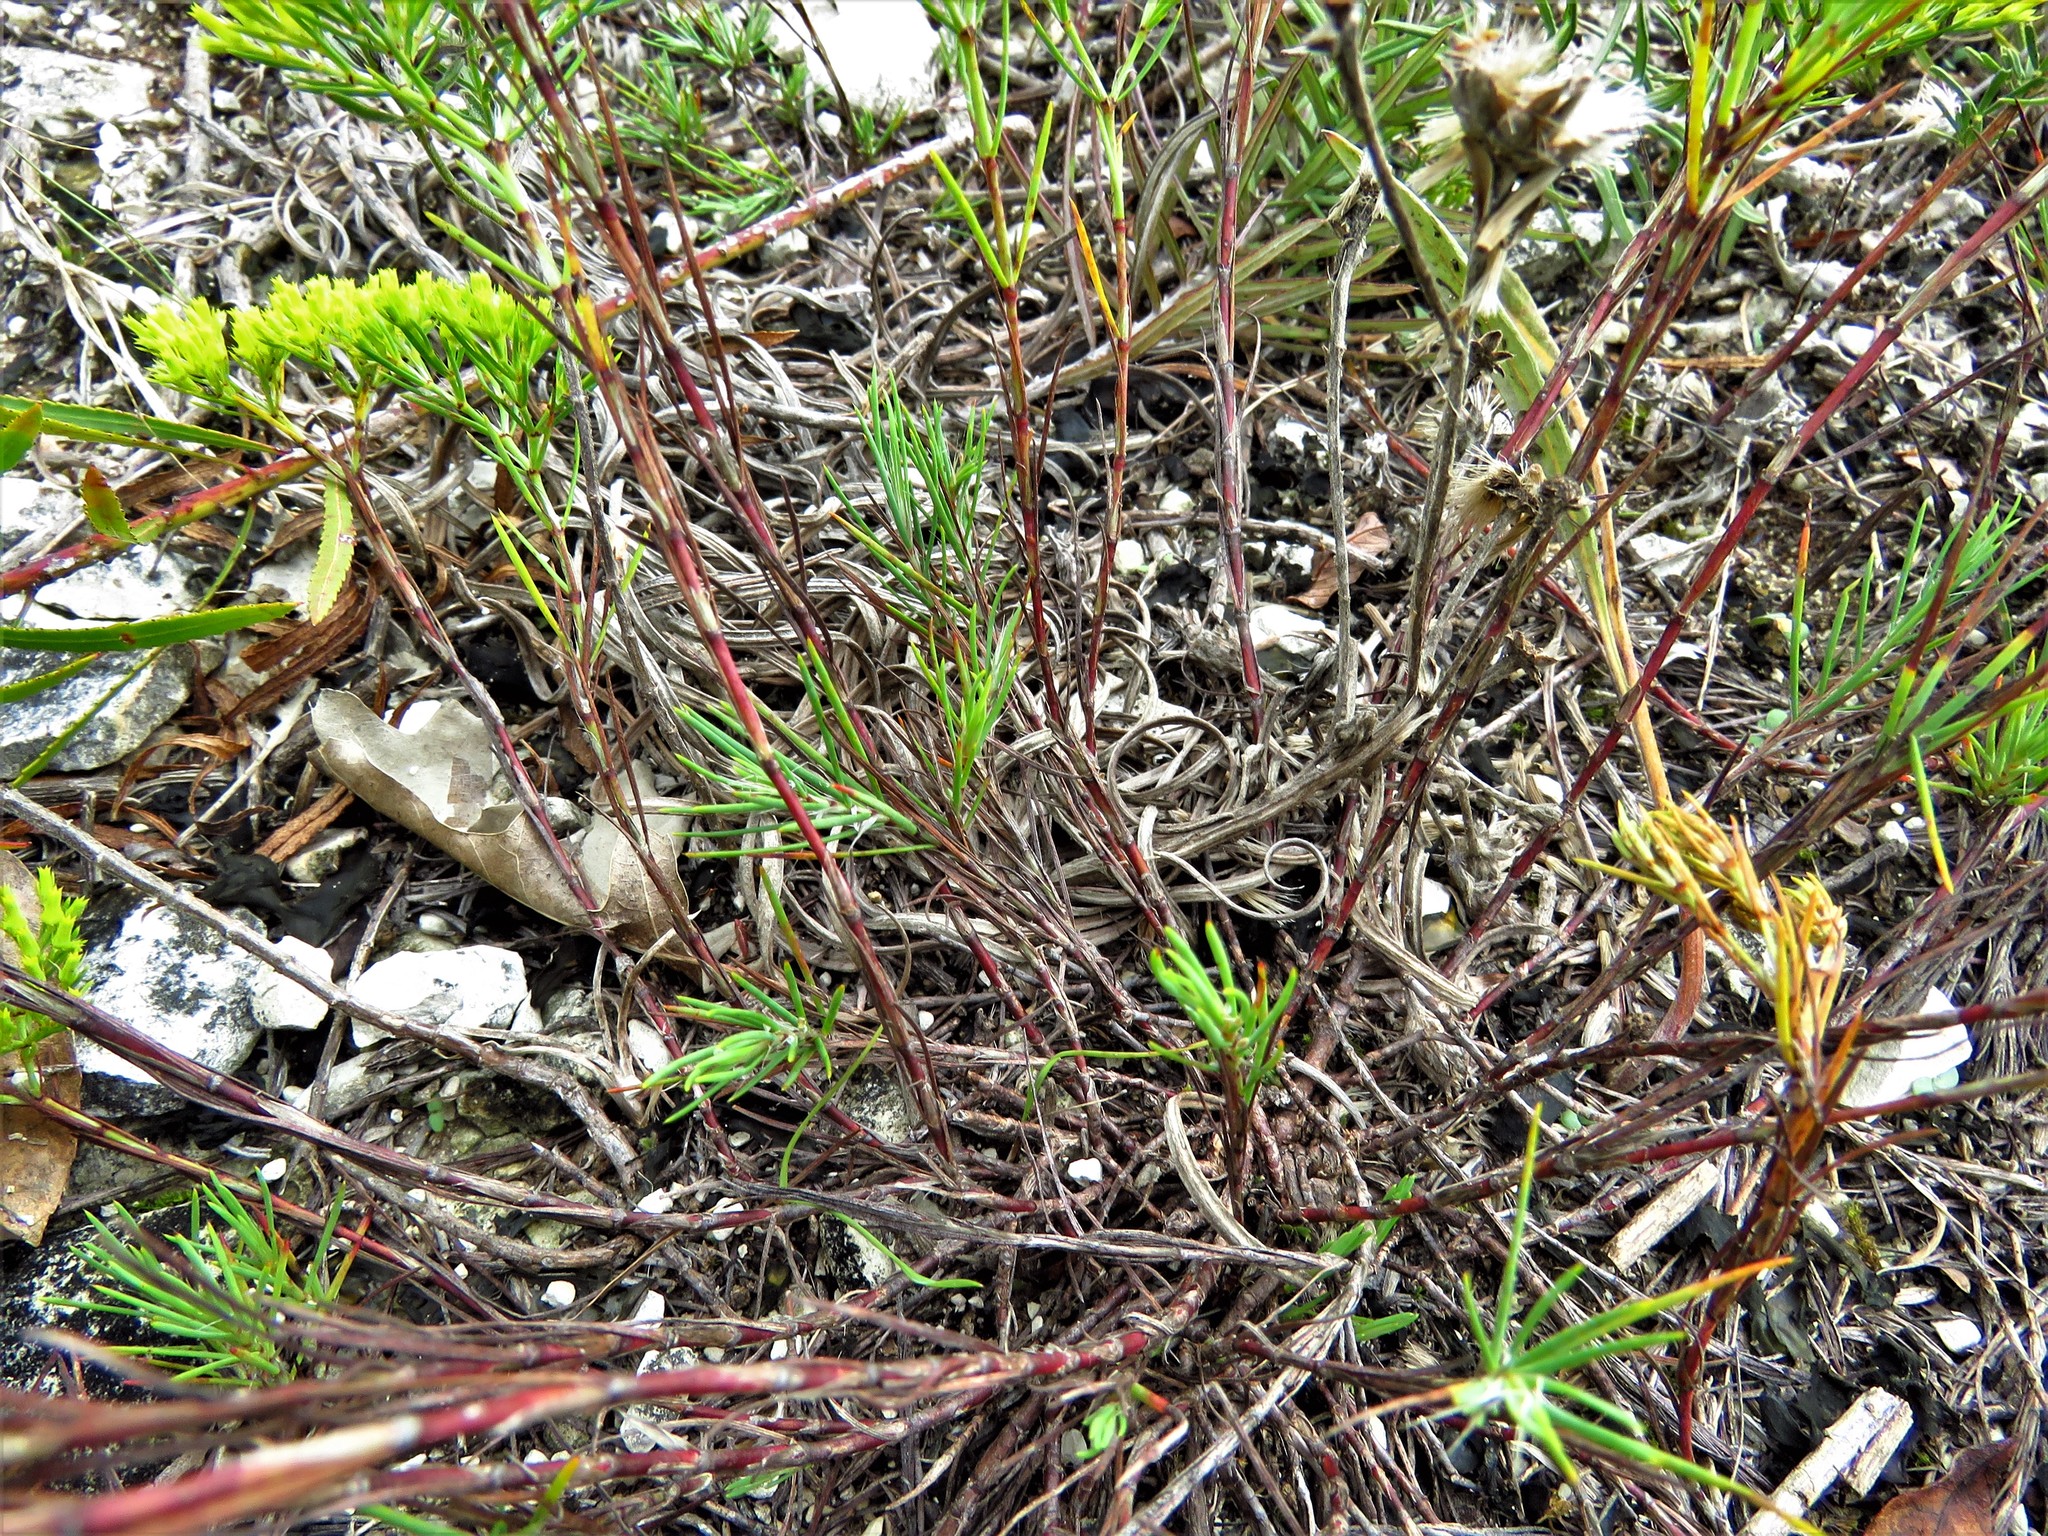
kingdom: Plantae
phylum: Tracheophyta
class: Magnoliopsida
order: Caryophyllales
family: Caryophyllaceae
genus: Paronychia
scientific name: Paronychia virginica
